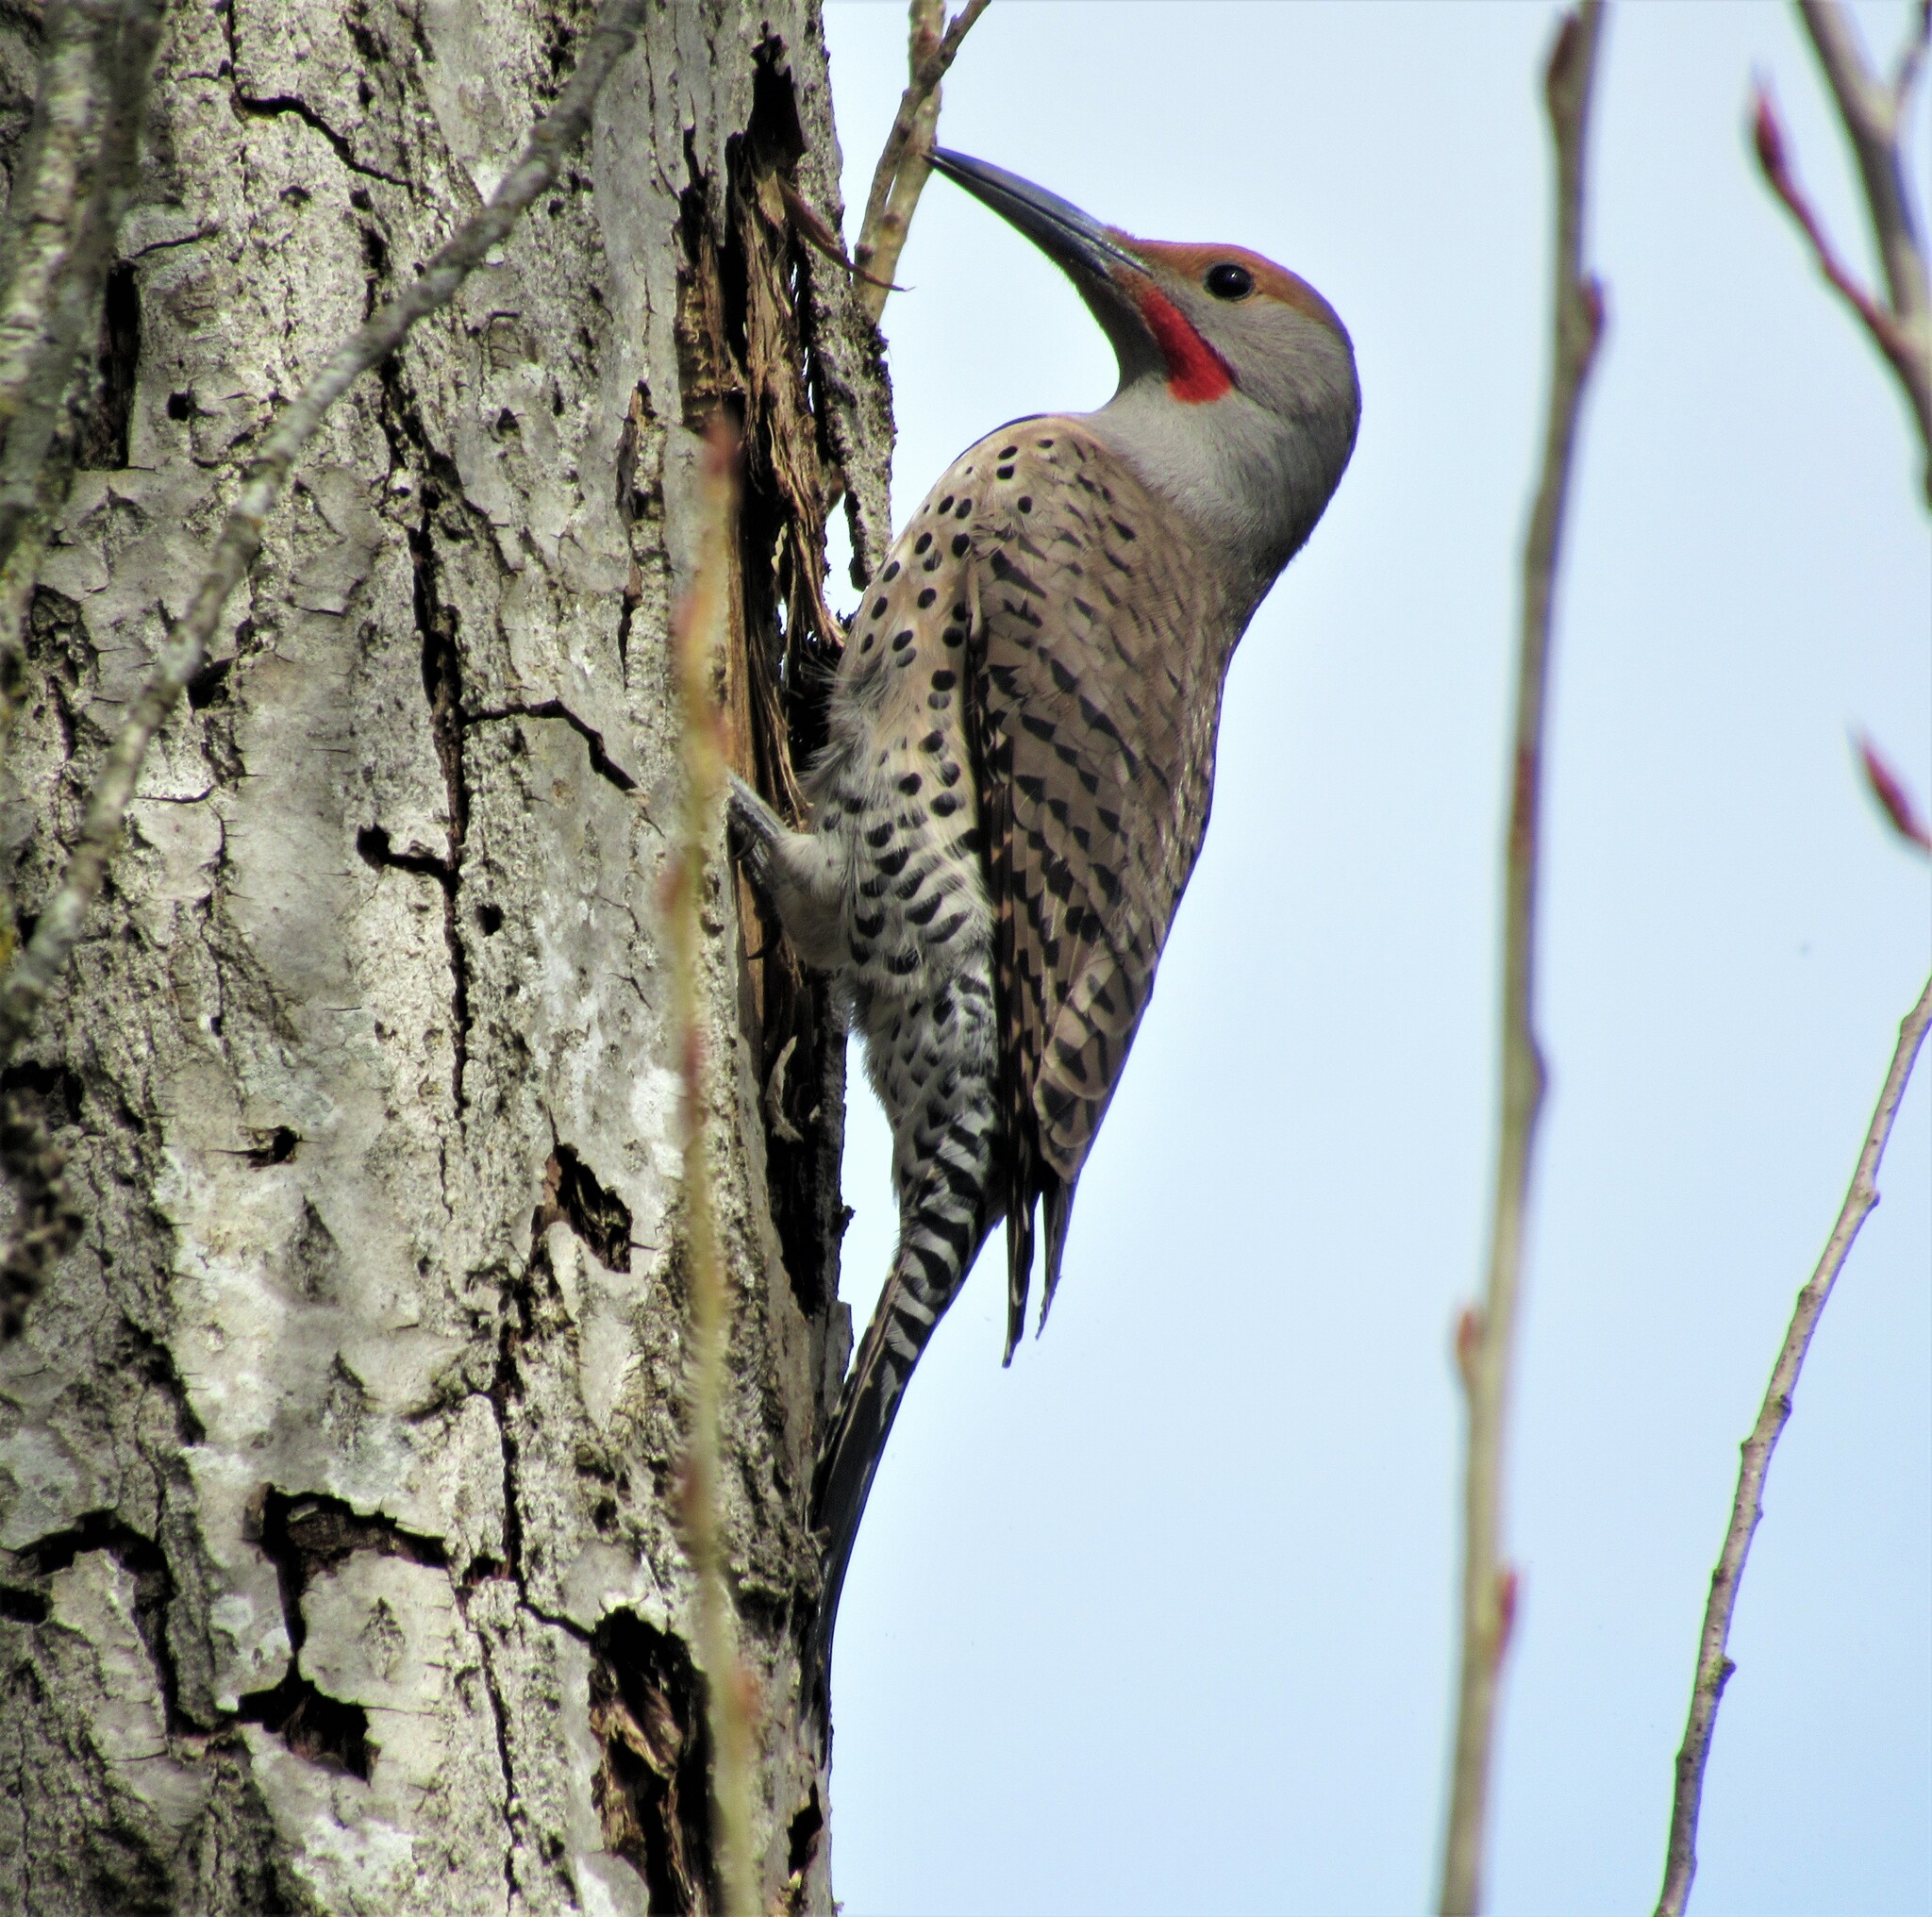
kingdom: Animalia
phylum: Chordata
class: Aves
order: Piciformes
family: Picidae
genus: Colaptes
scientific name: Colaptes auratus
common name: Northern flicker
